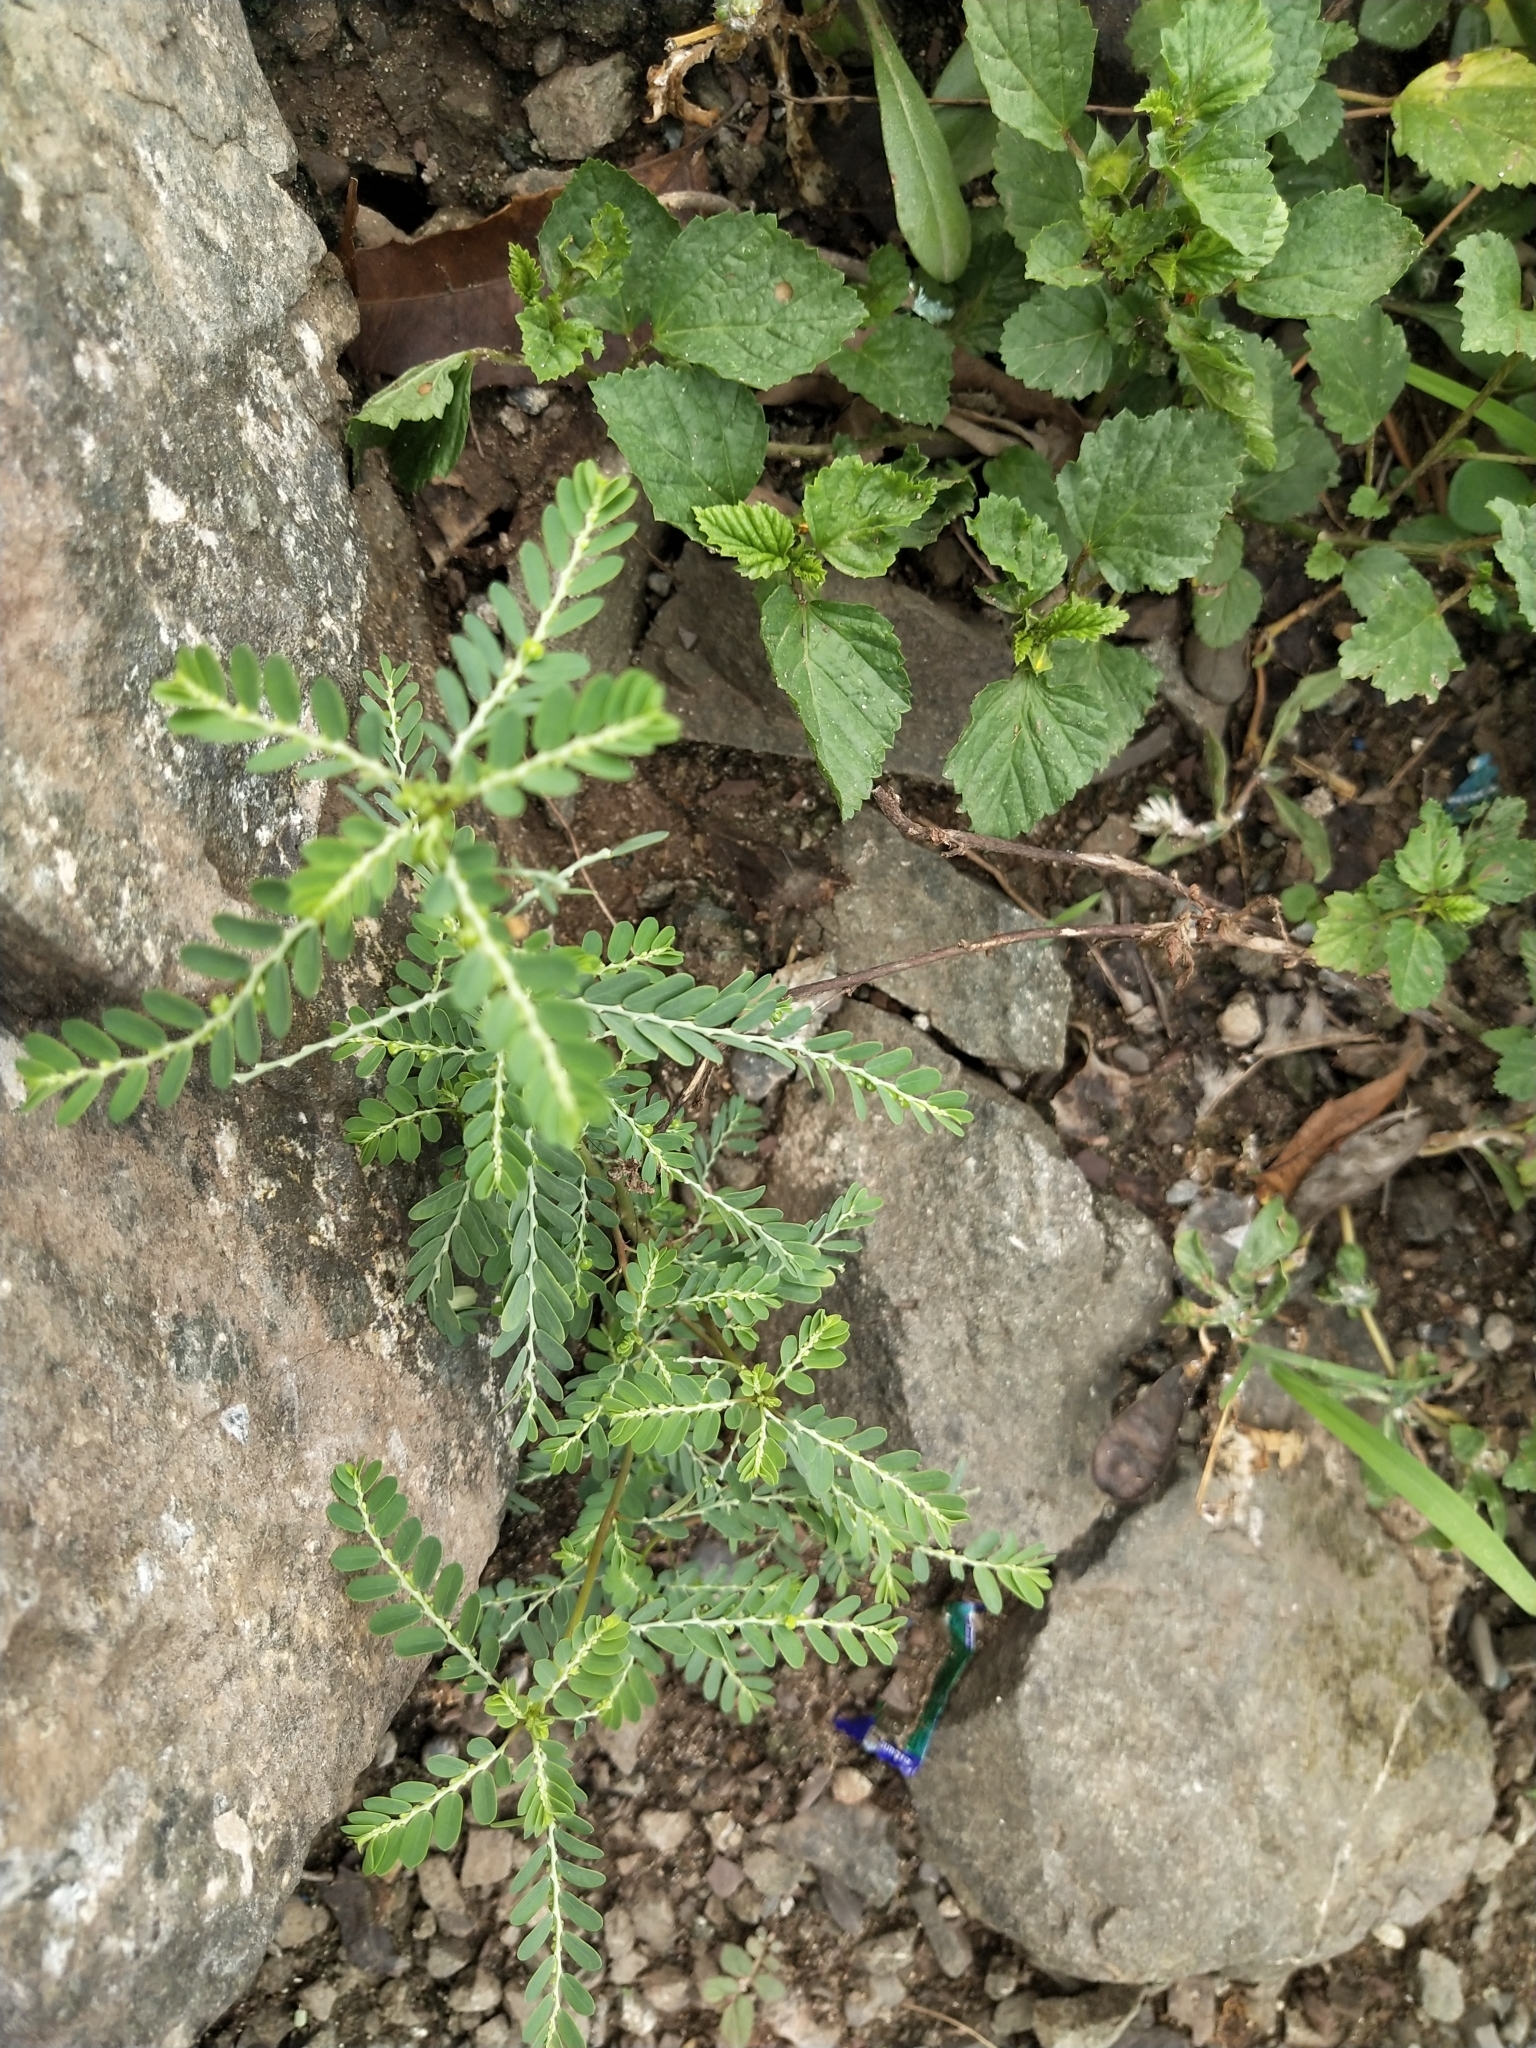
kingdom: Plantae
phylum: Tracheophyta
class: Magnoliopsida
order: Malpighiales
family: Phyllanthaceae
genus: Phyllanthus
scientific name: Phyllanthus urinaria
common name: Chamber bitter
